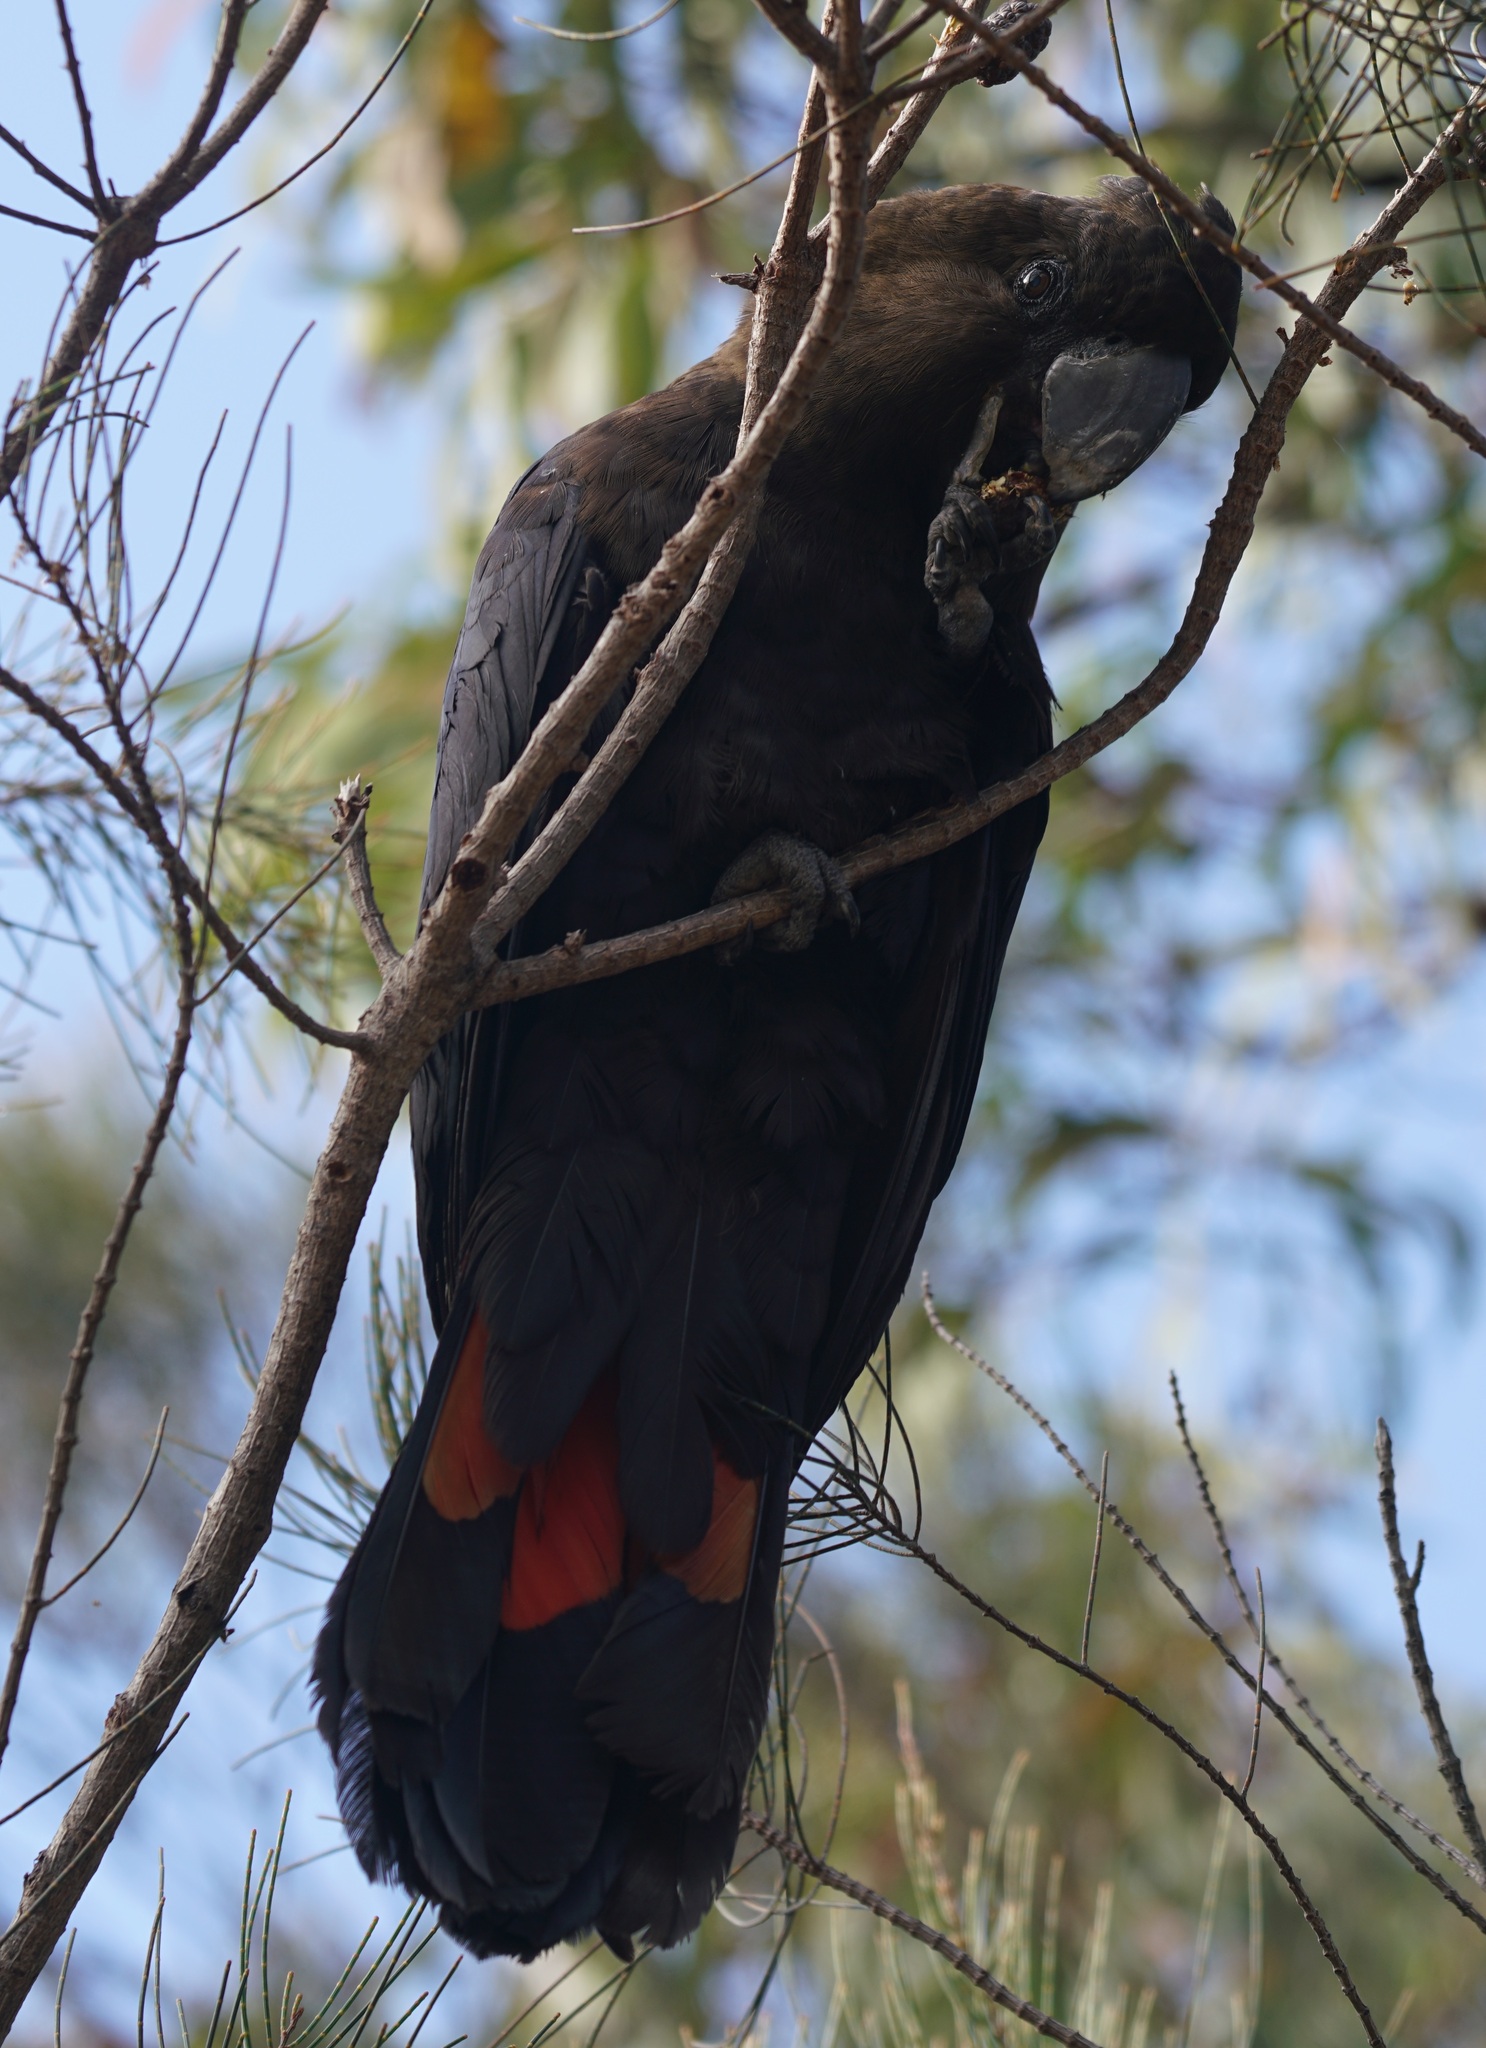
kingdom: Animalia
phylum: Chordata
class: Aves
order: Psittaciformes
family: Psittacidae
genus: Calyptorhynchus
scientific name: Calyptorhynchus lathami
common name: Glossy black cockatoo
